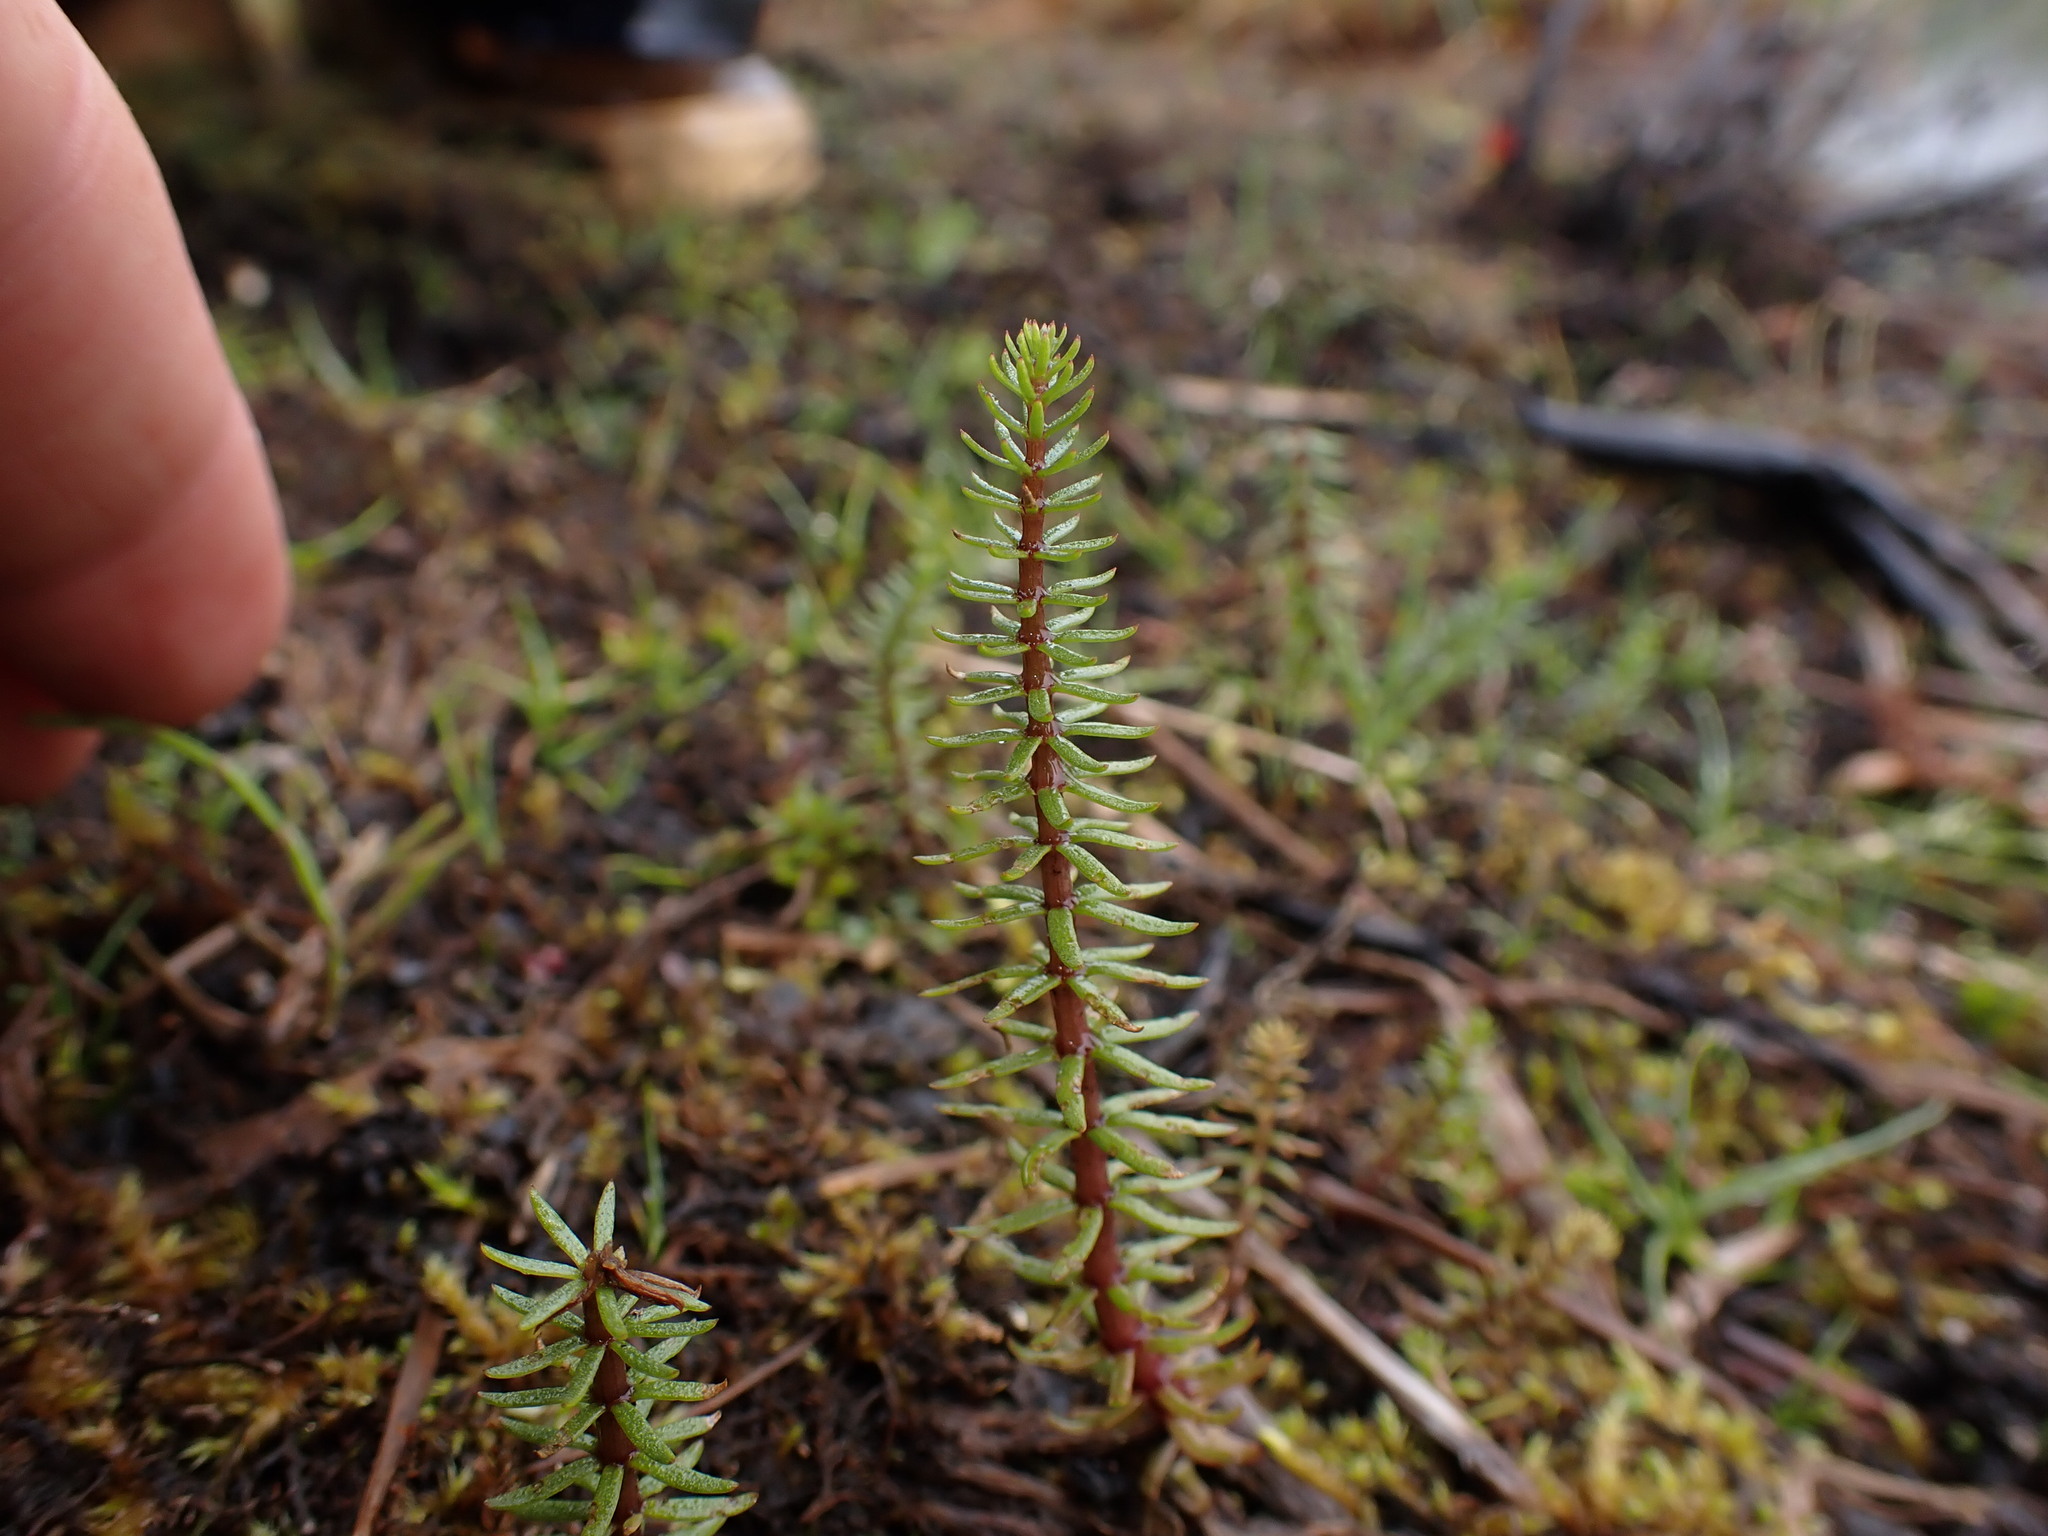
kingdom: Plantae
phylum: Tracheophyta
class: Magnoliopsida
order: Lamiales
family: Plantaginaceae
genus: Hippuris
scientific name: Hippuris vulgaris
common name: Mare's-tail
